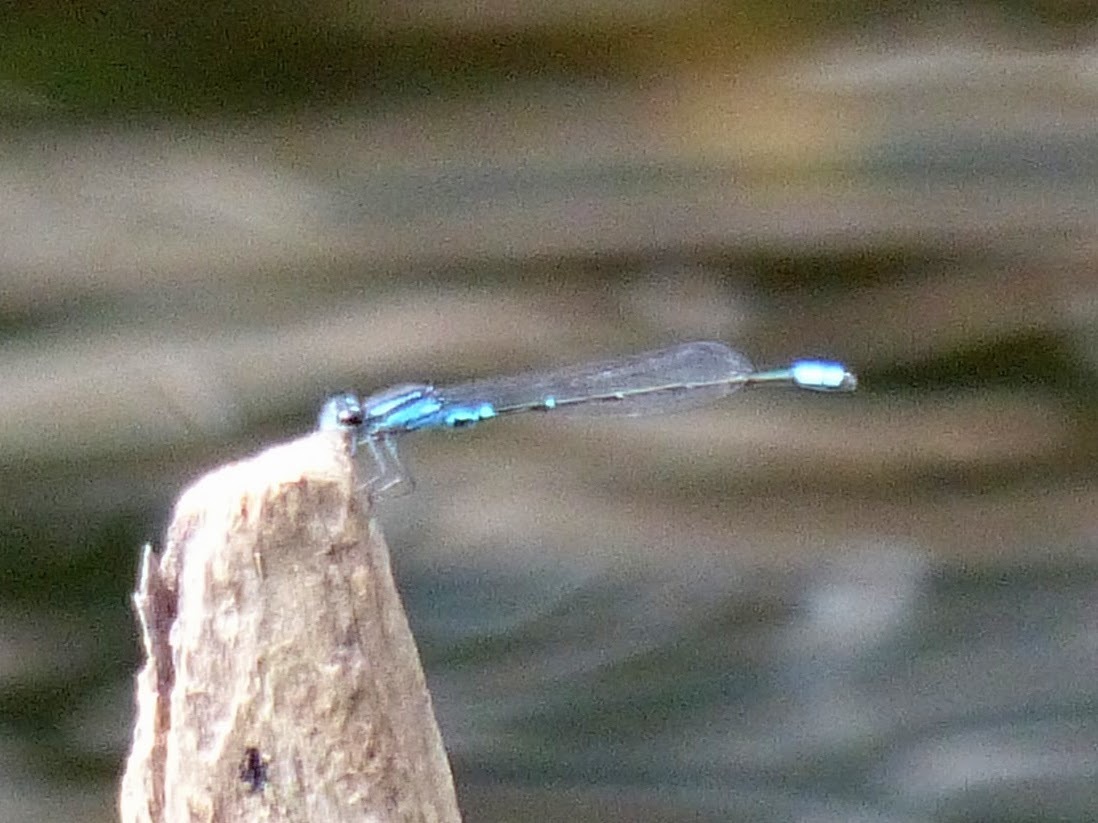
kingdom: Animalia
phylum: Arthropoda
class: Insecta
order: Odonata
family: Coenagrionidae
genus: Enallagma
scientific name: Enallagma geminatum
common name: Skimming bluet
